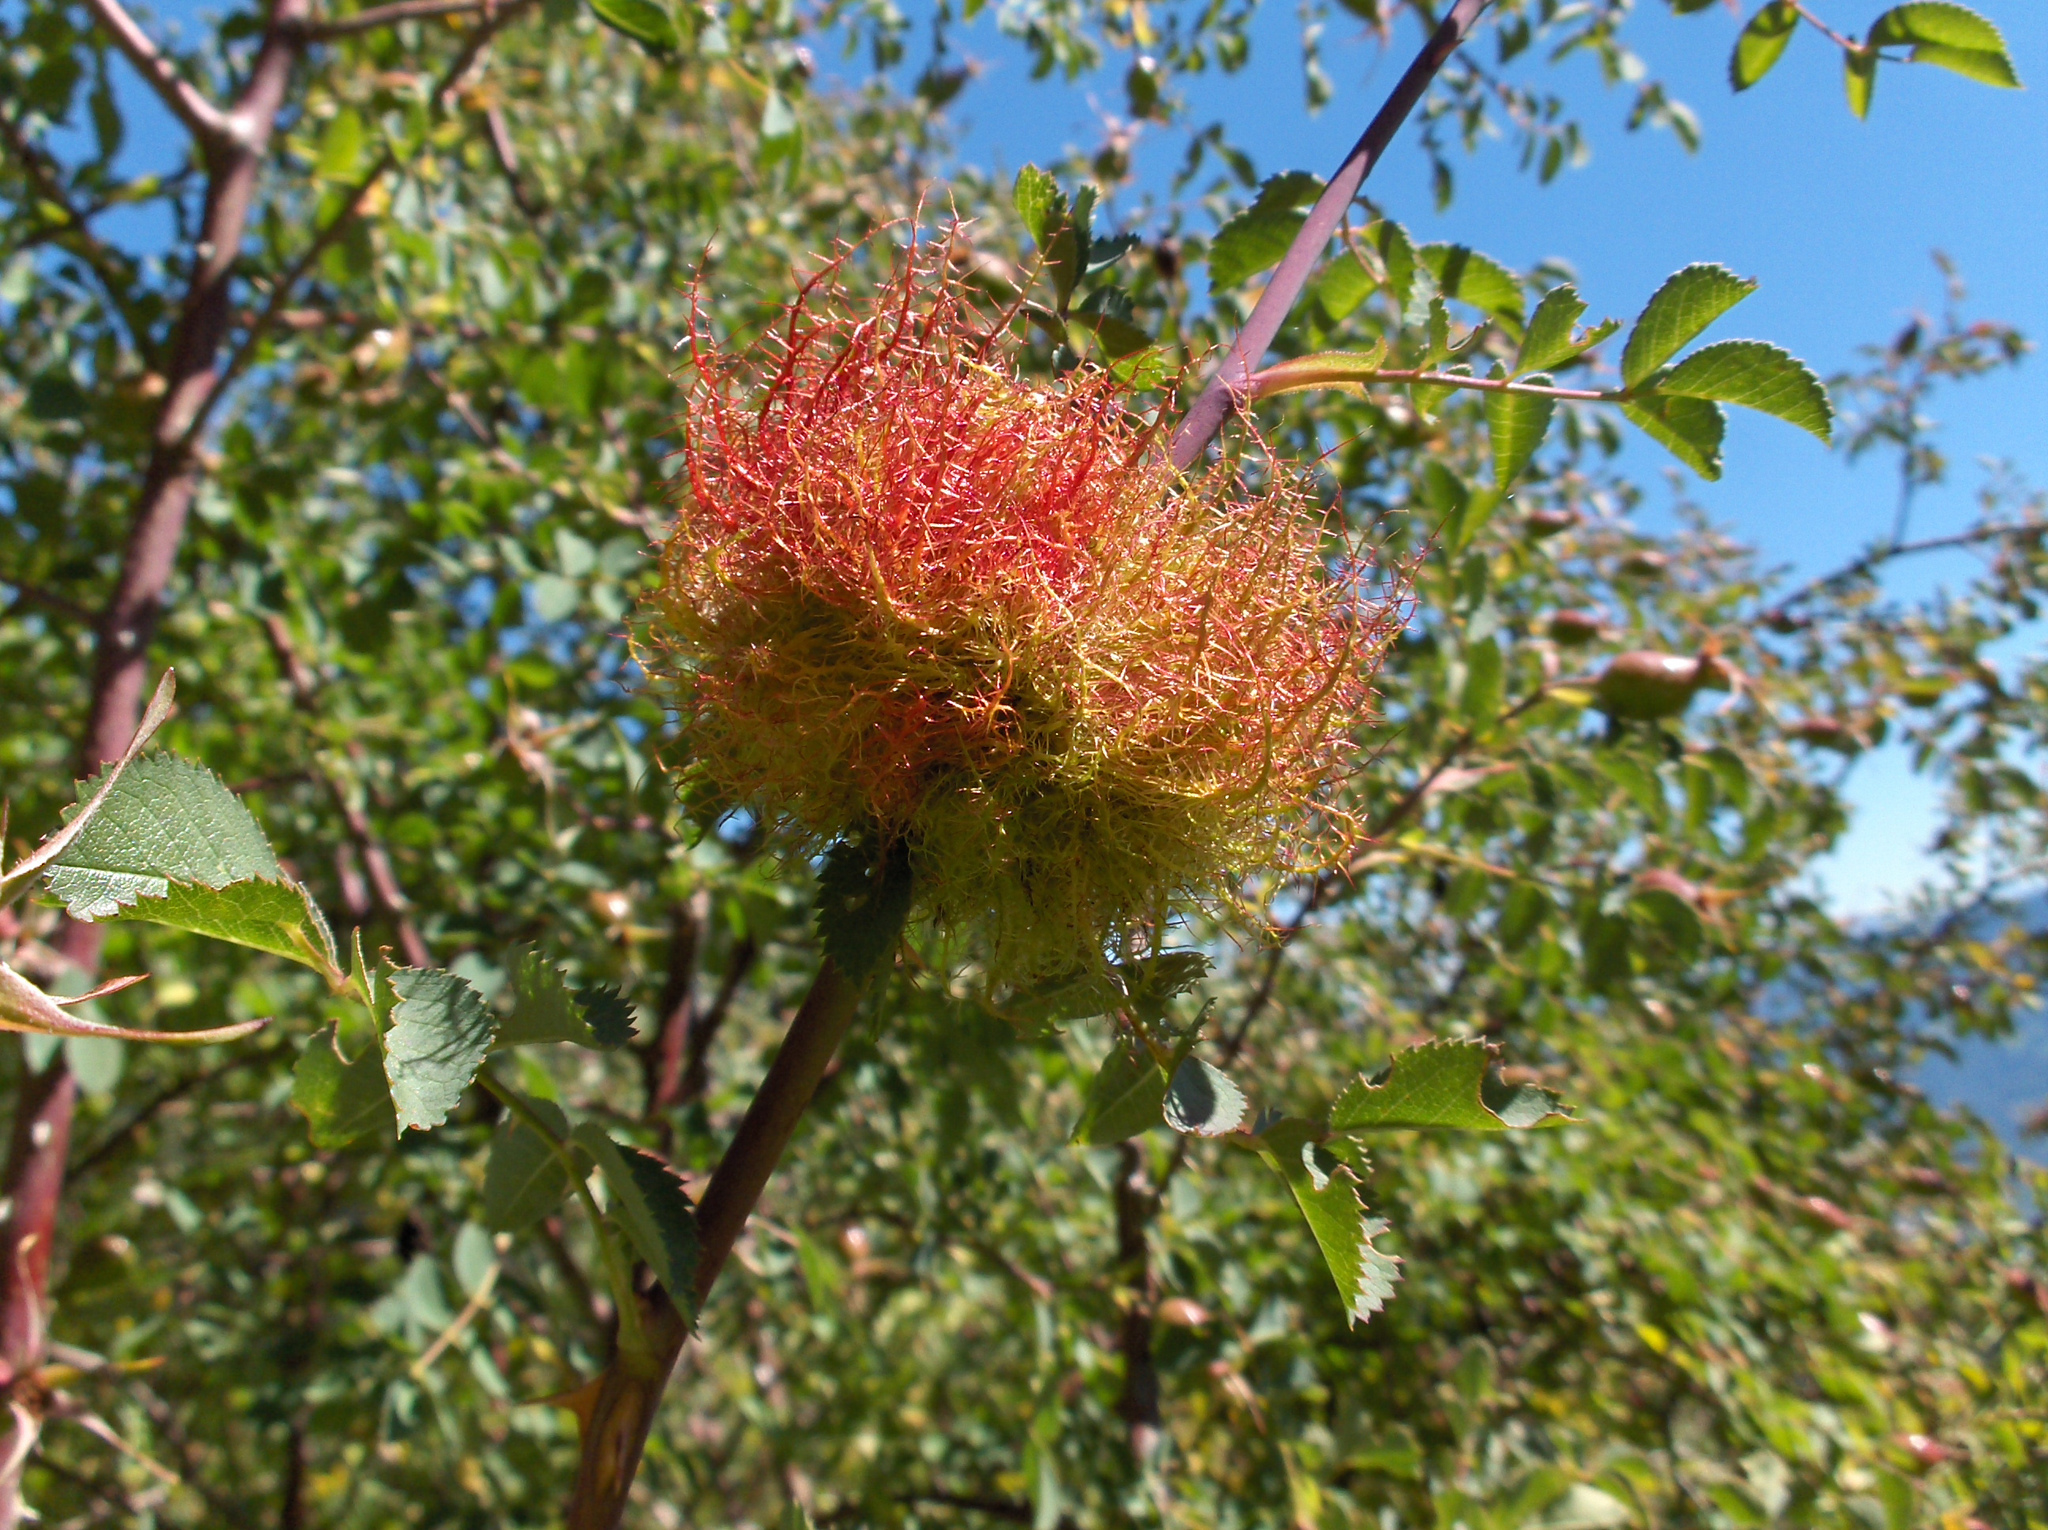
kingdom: Animalia
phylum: Arthropoda
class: Insecta
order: Hymenoptera
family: Cynipidae
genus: Diplolepis
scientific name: Diplolepis rosae
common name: Bedeguar gall
